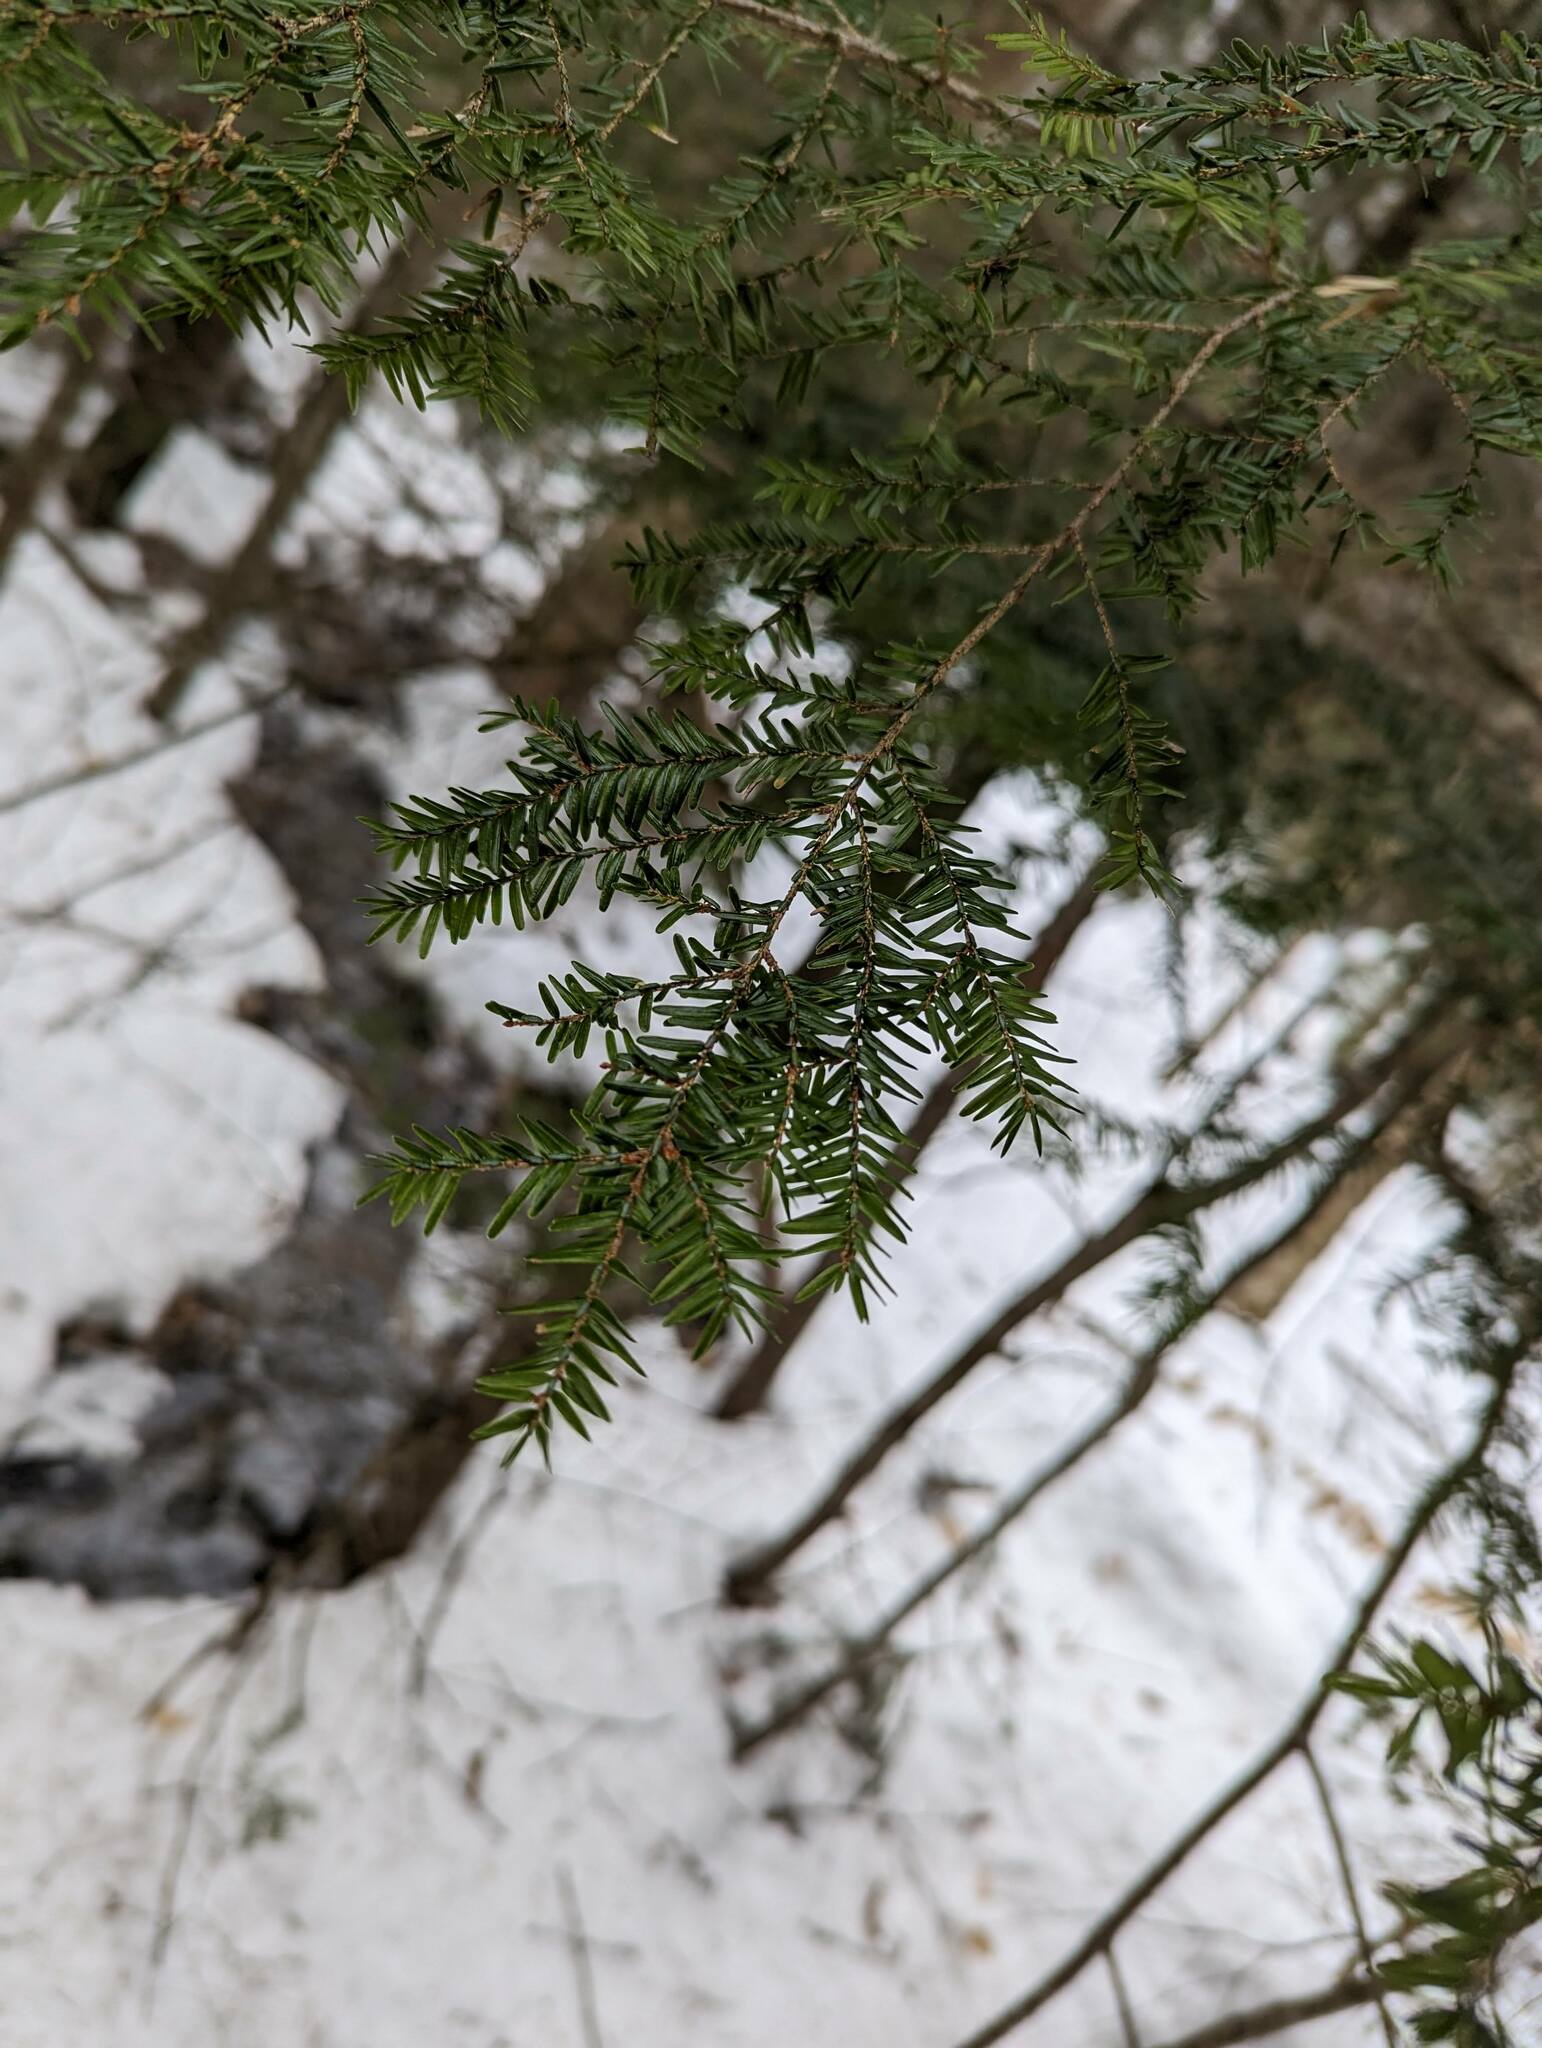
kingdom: Plantae
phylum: Tracheophyta
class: Pinopsida
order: Pinales
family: Pinaceae
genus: Tsuga
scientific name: Tsuga canadensis
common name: Eastern hemlock
